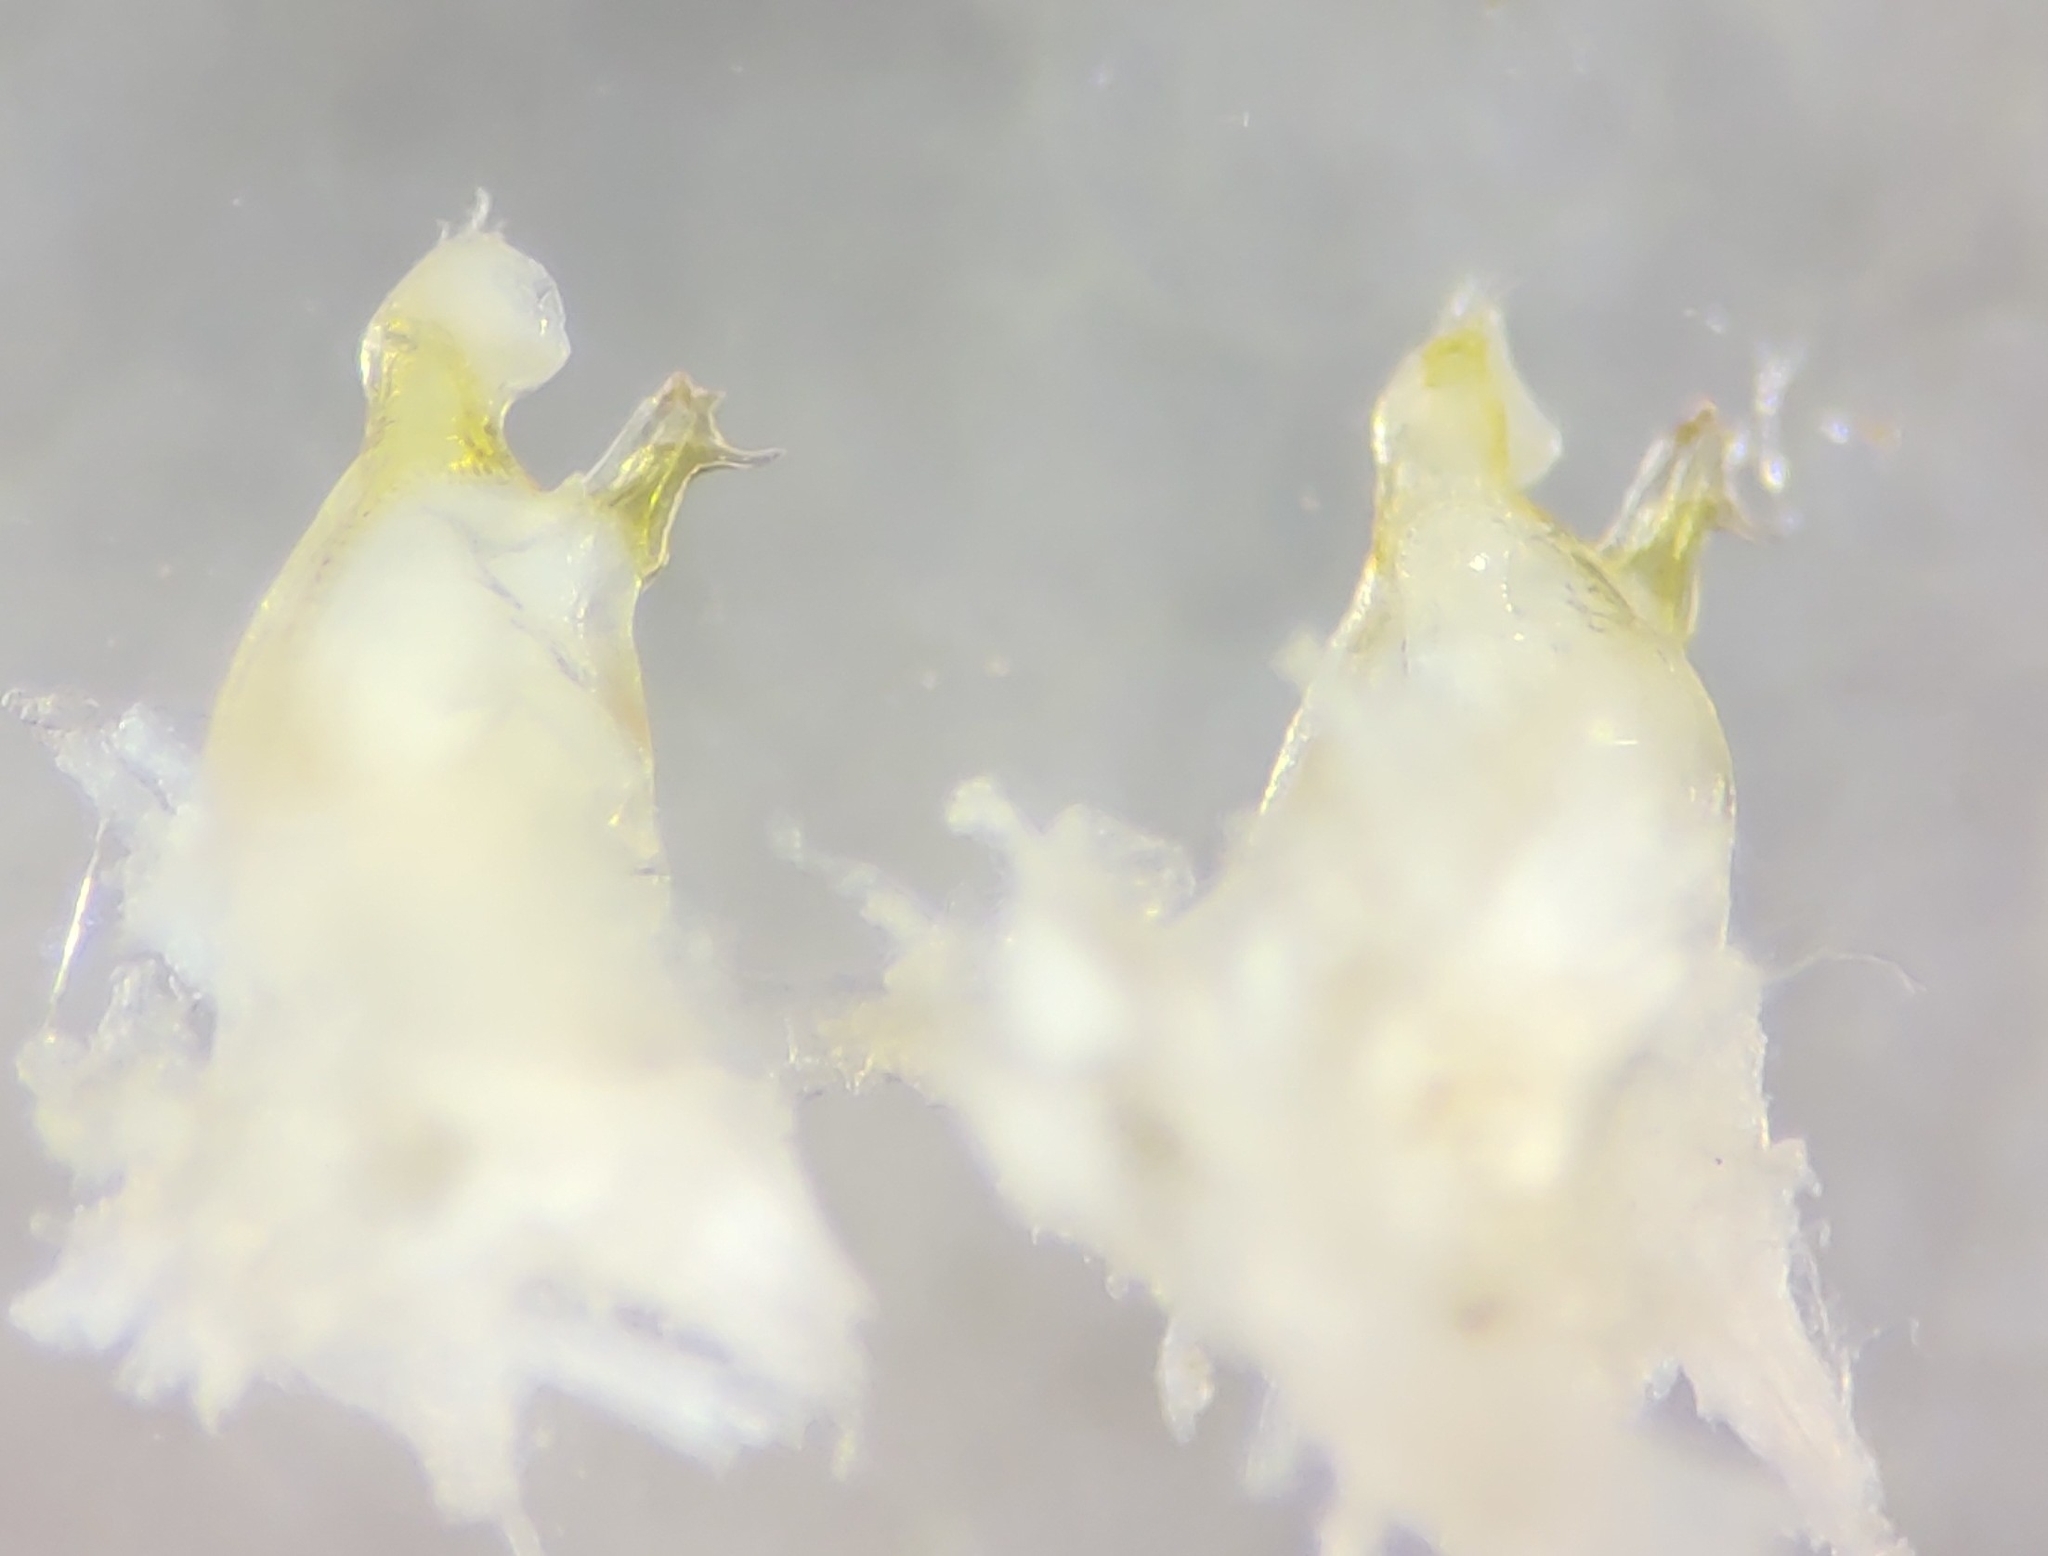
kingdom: Animalia
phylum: Arthropoda
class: Diplopoda
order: Spirostreptida
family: Cambalidae
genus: Cambala
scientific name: Cambala annulata
